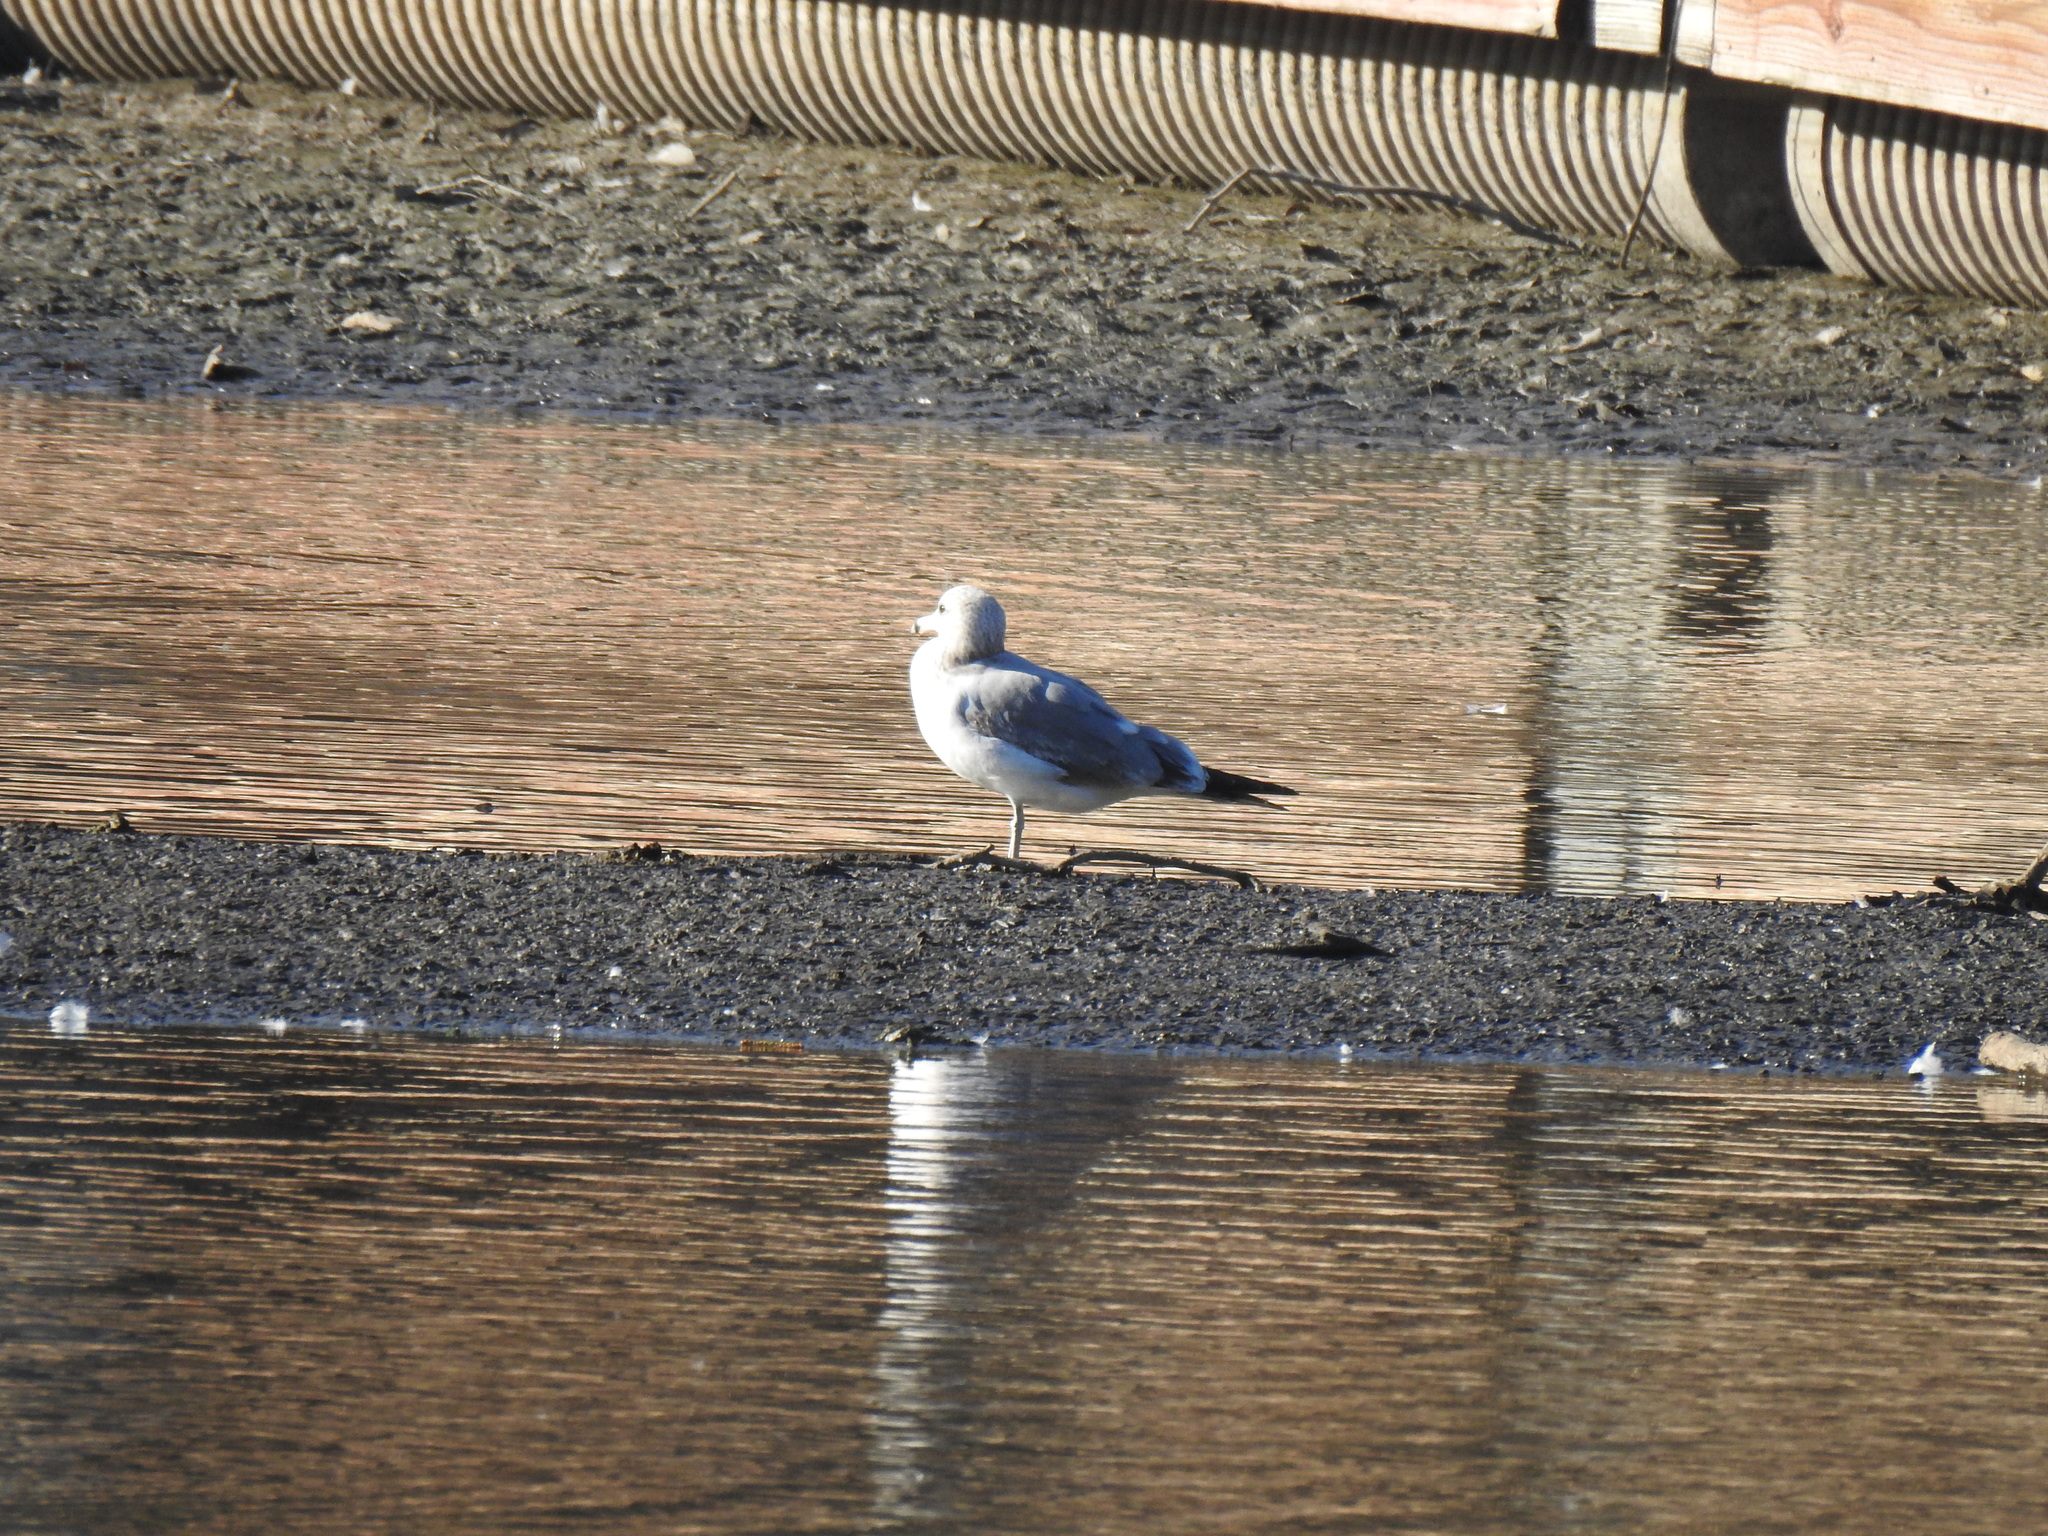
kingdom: Animalia
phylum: Chordata
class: Aves
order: Charadriiformes
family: Laridae
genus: Larus
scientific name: Larus californicus
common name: California gull
